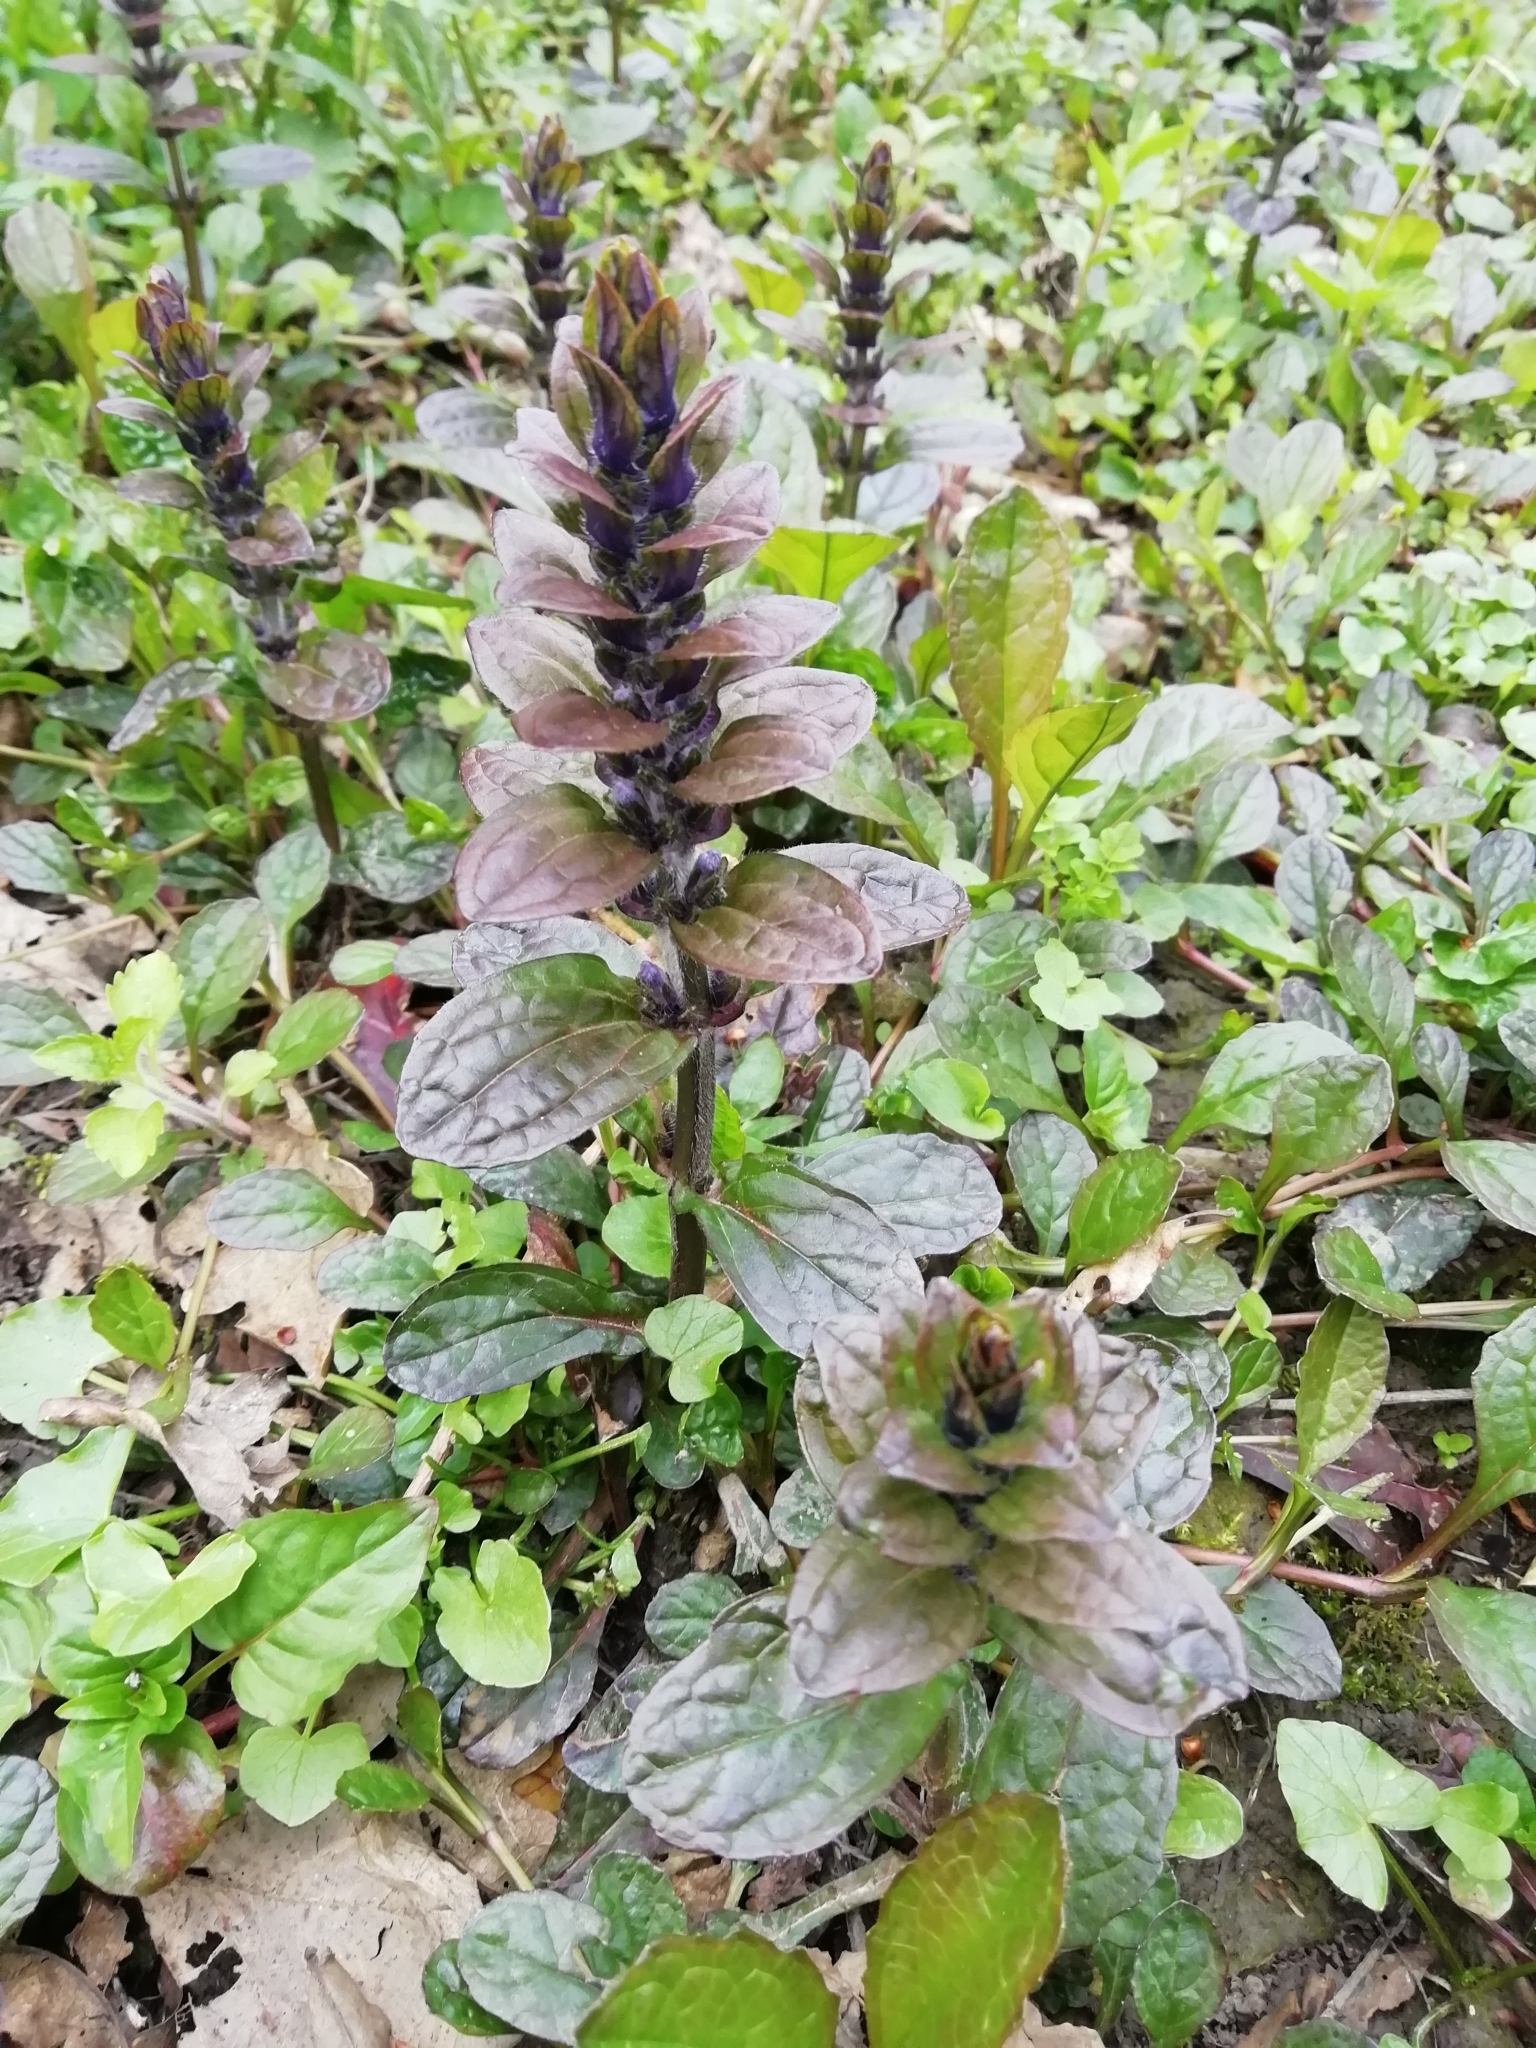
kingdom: Plantae
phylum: Tracheophyta
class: Magnoliopsida
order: Lamiales
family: Lamiaceae
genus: Ajuga
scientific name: Ajuga reptans
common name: Bugle
